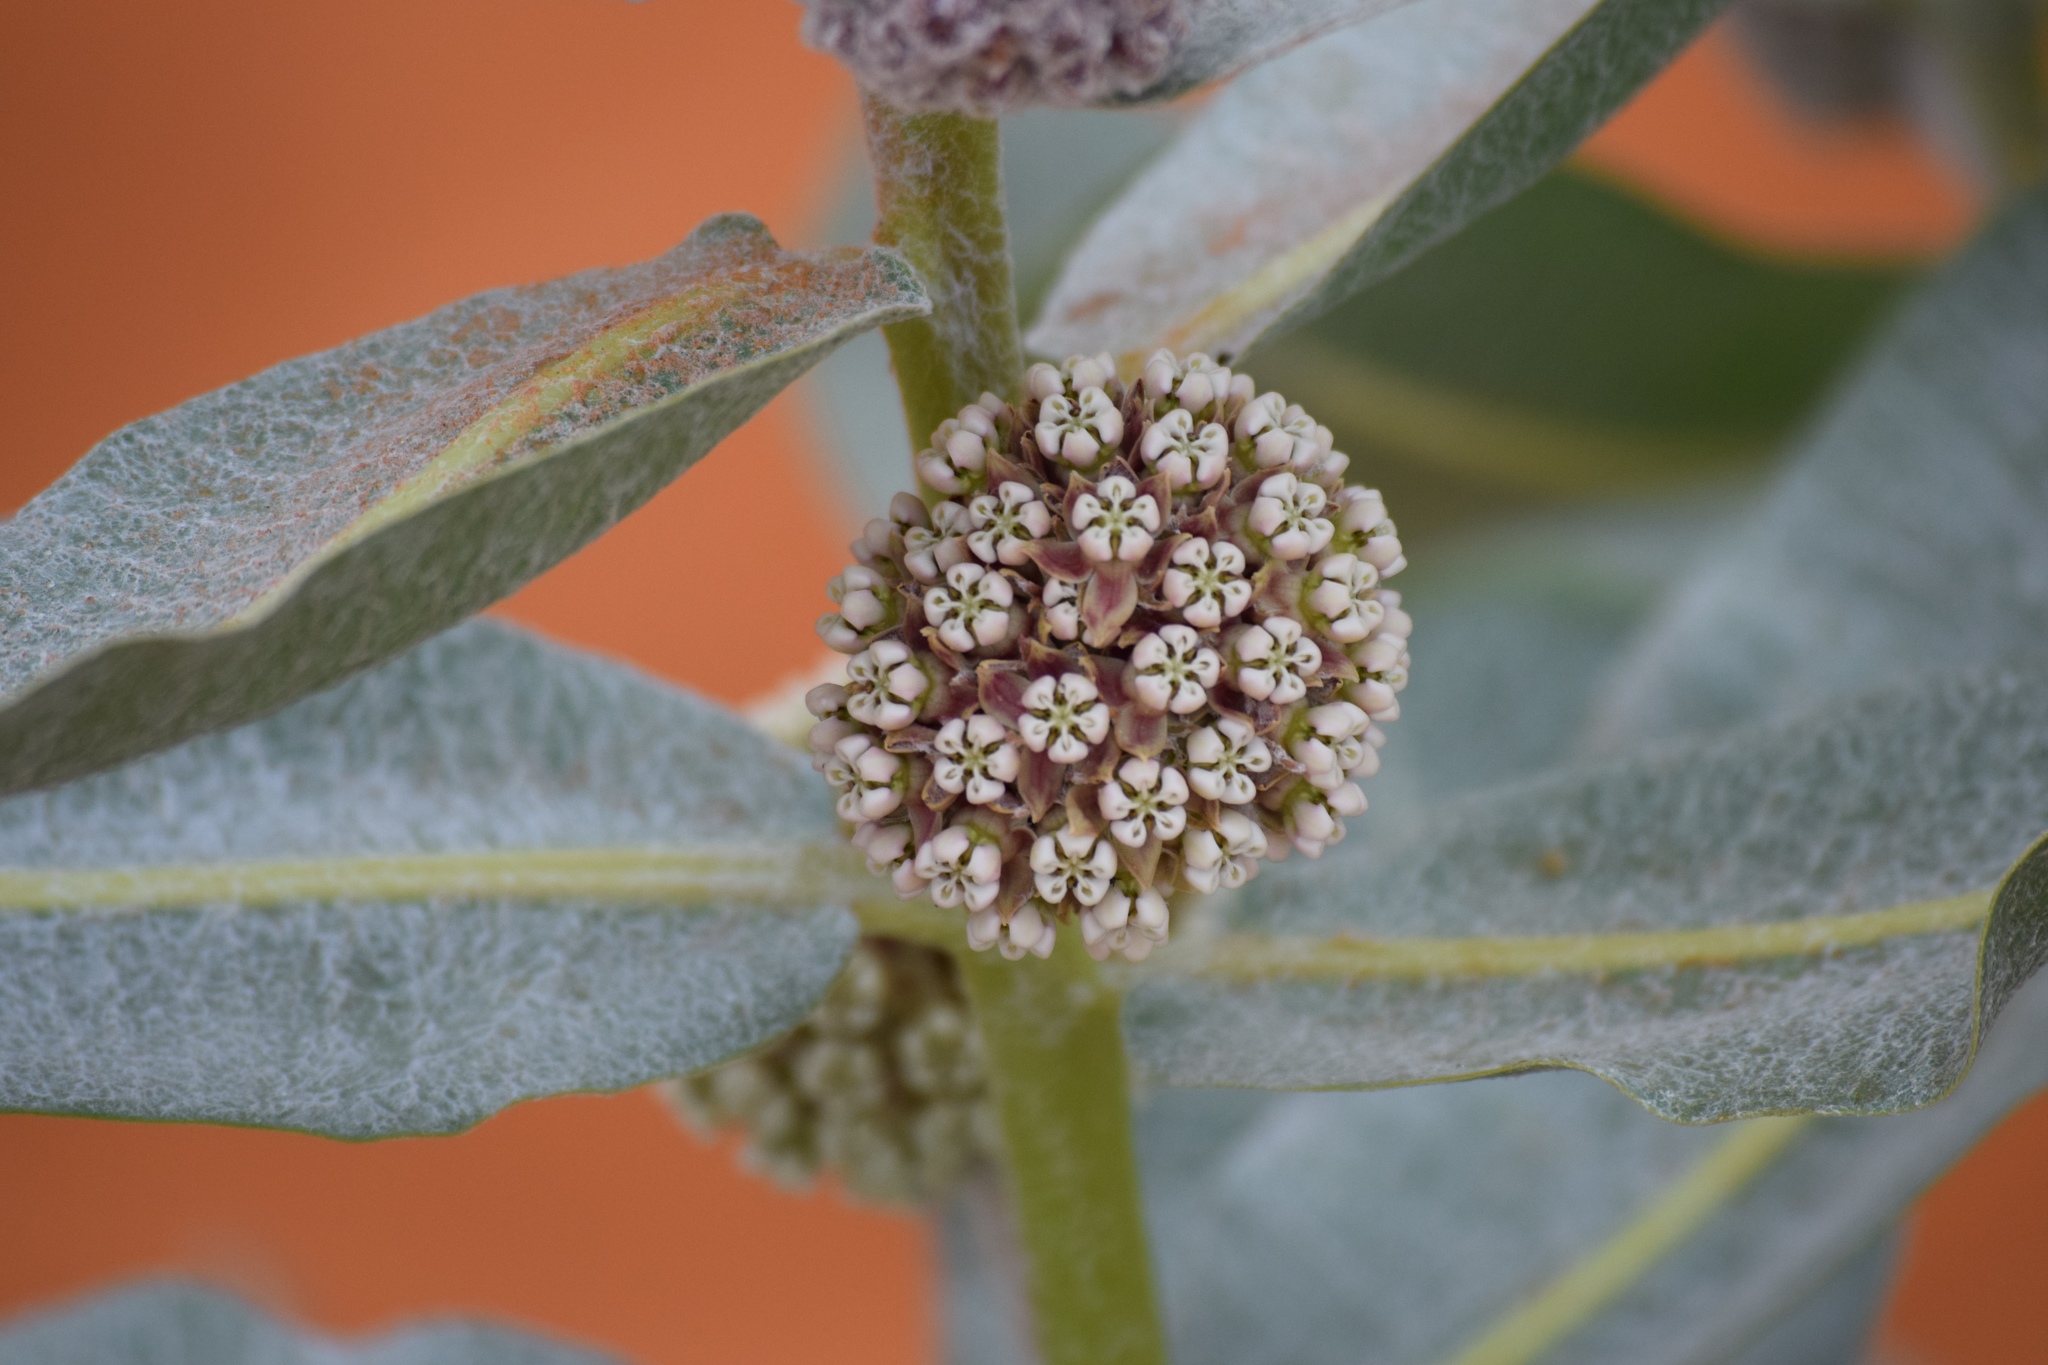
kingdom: Plantae
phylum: Tracheophyta
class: Magnoliopsida
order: Gentianales
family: Apocynaceae
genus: Asclepias
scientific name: Asclepias welshii
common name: Welsch's milkweed
